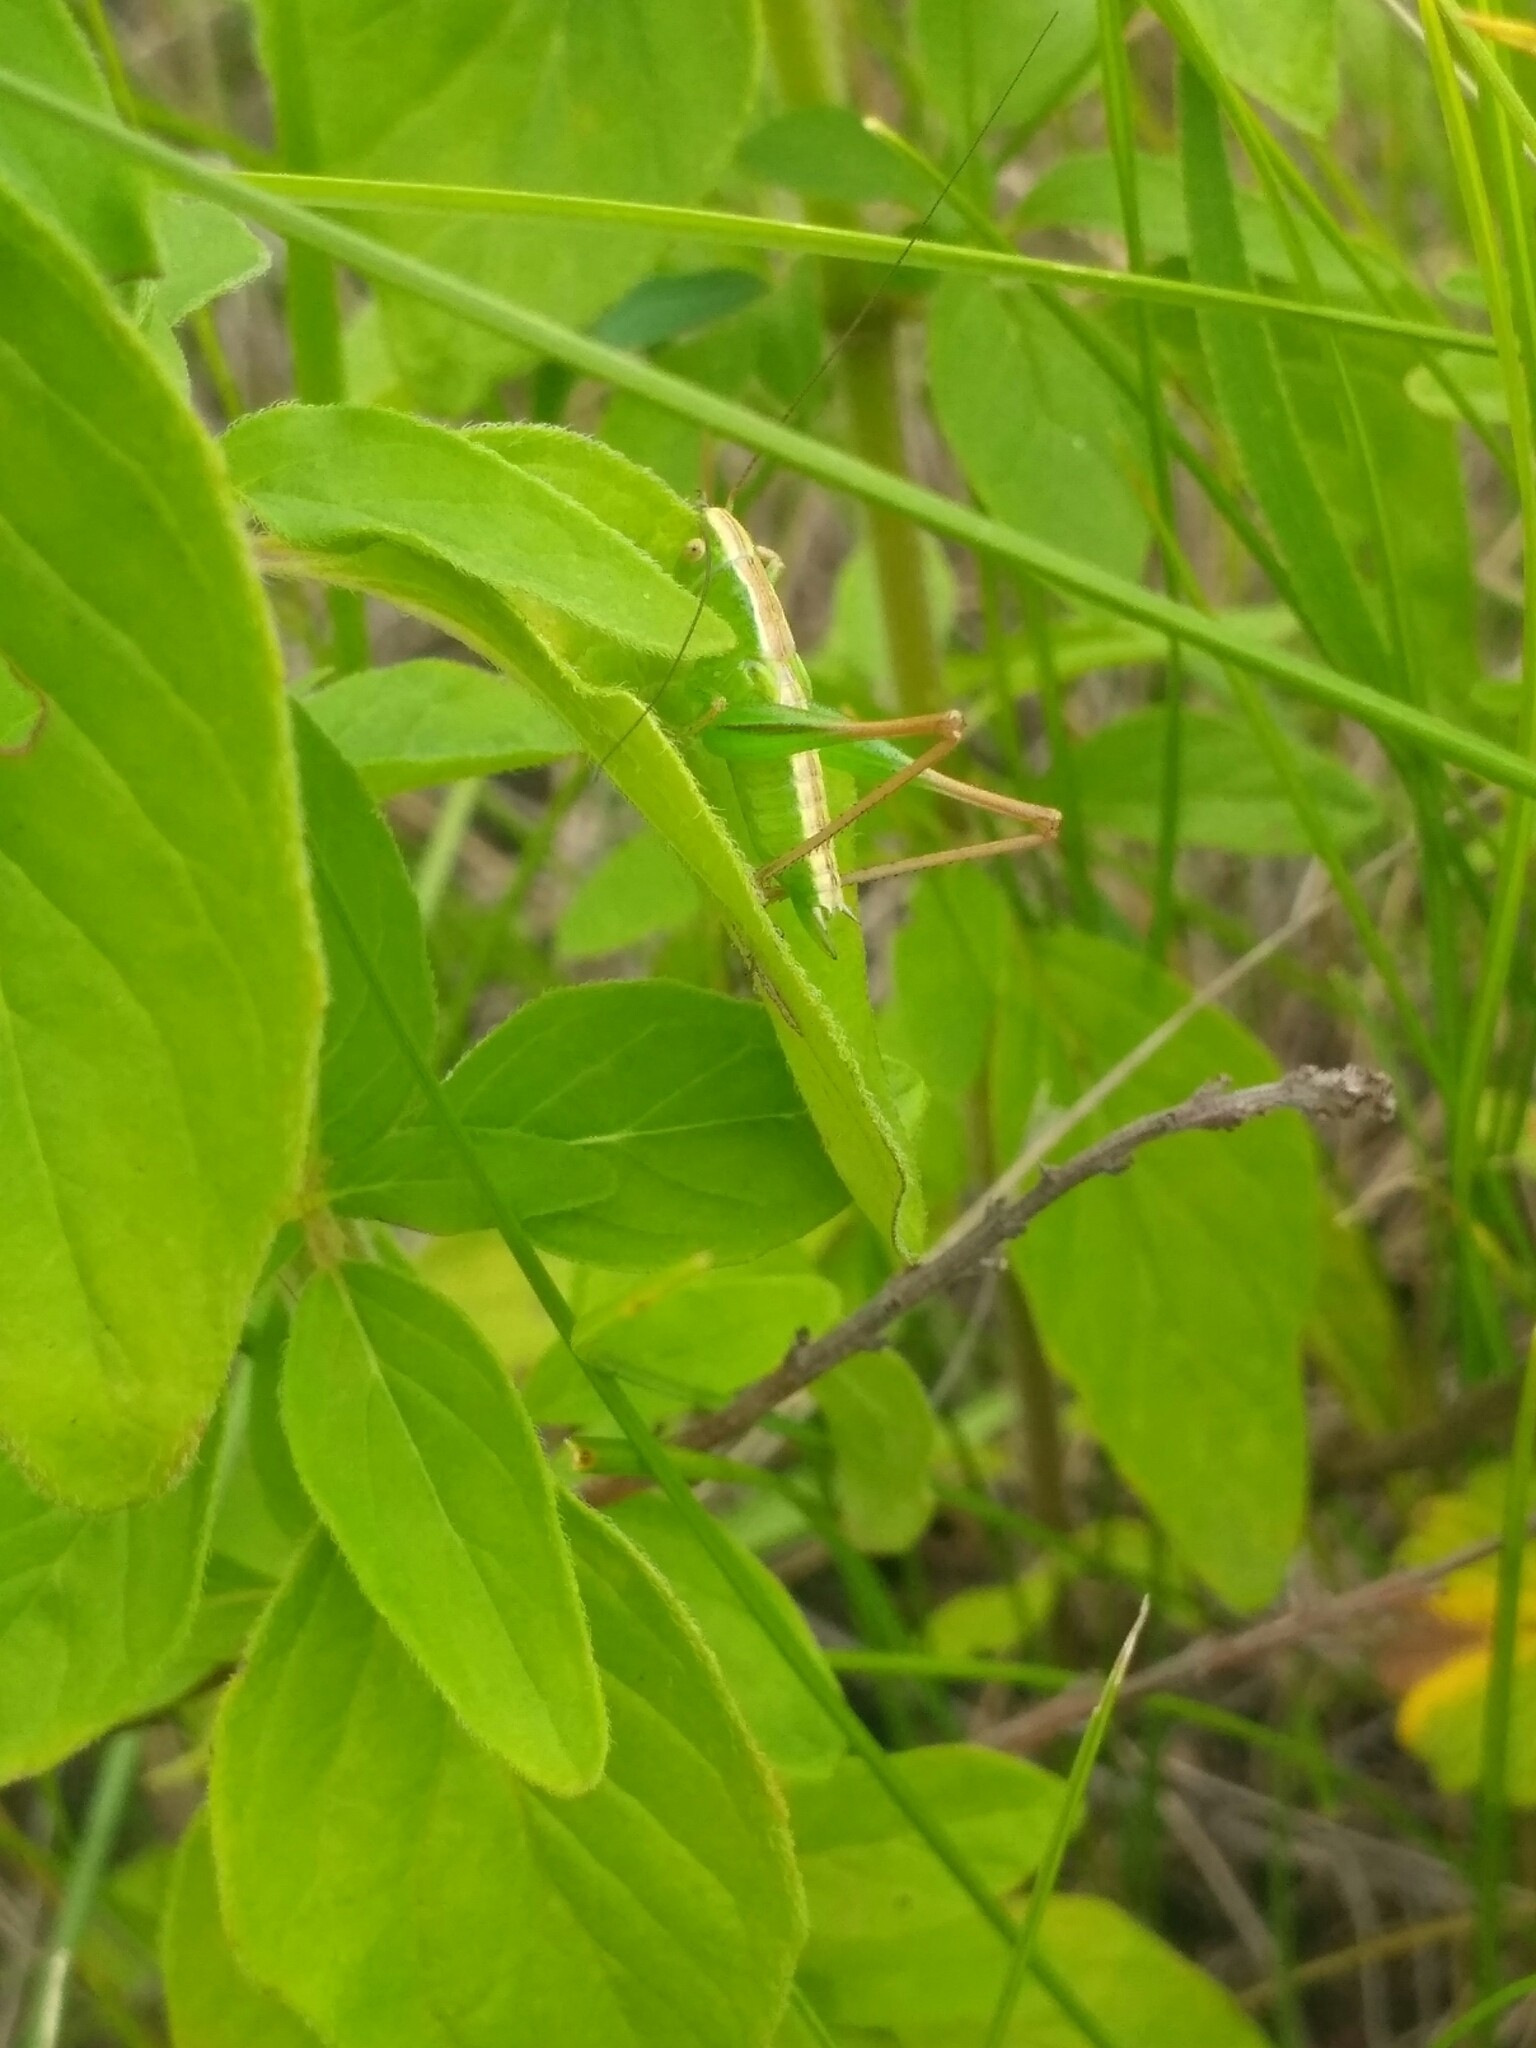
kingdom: Animalia
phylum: Arthropoda
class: Insecta
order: Orthoptera
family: Tettigoniidae
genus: Bicolorana
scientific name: Bicolorana bicolor
